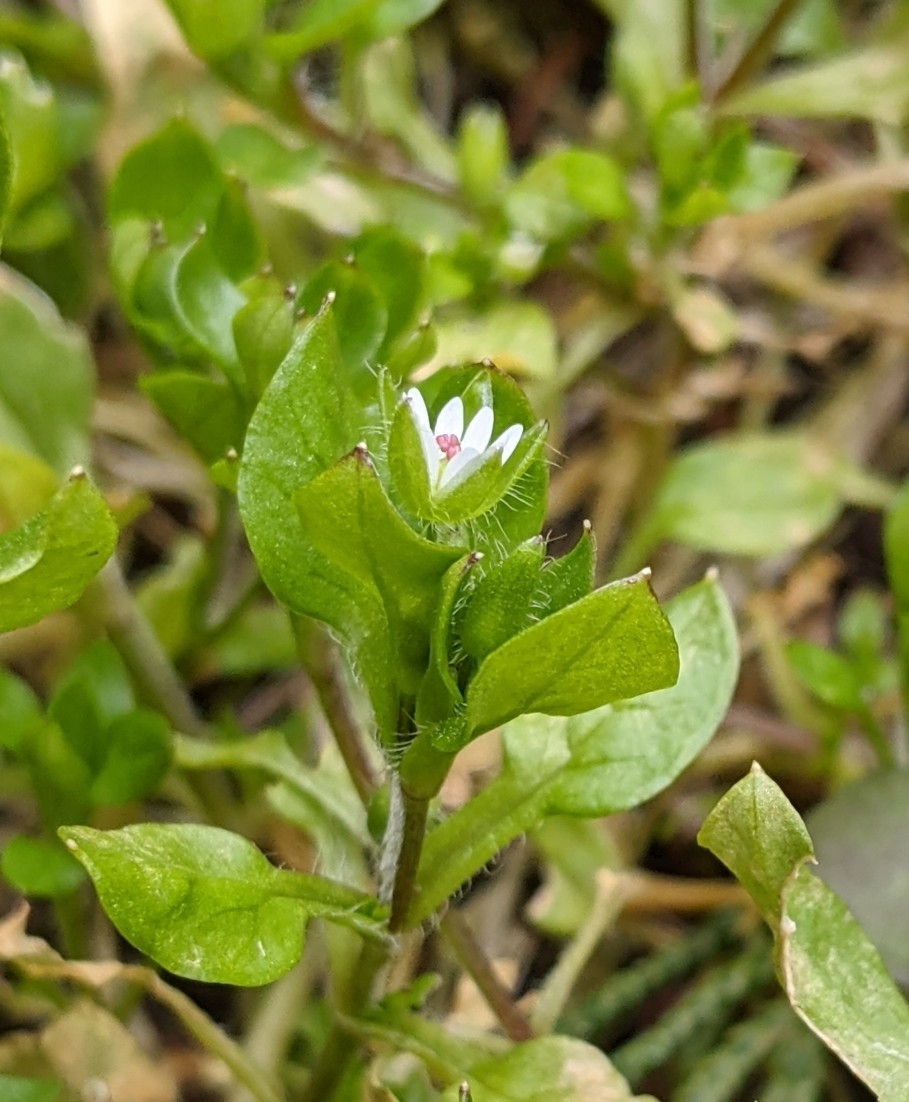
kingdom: Plantae
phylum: Tracheophyta
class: Magnoliopsida
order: Caryophyllales
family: Caryophyllaceae
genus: Stellaria
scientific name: Stellaria media
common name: Common chickweed
